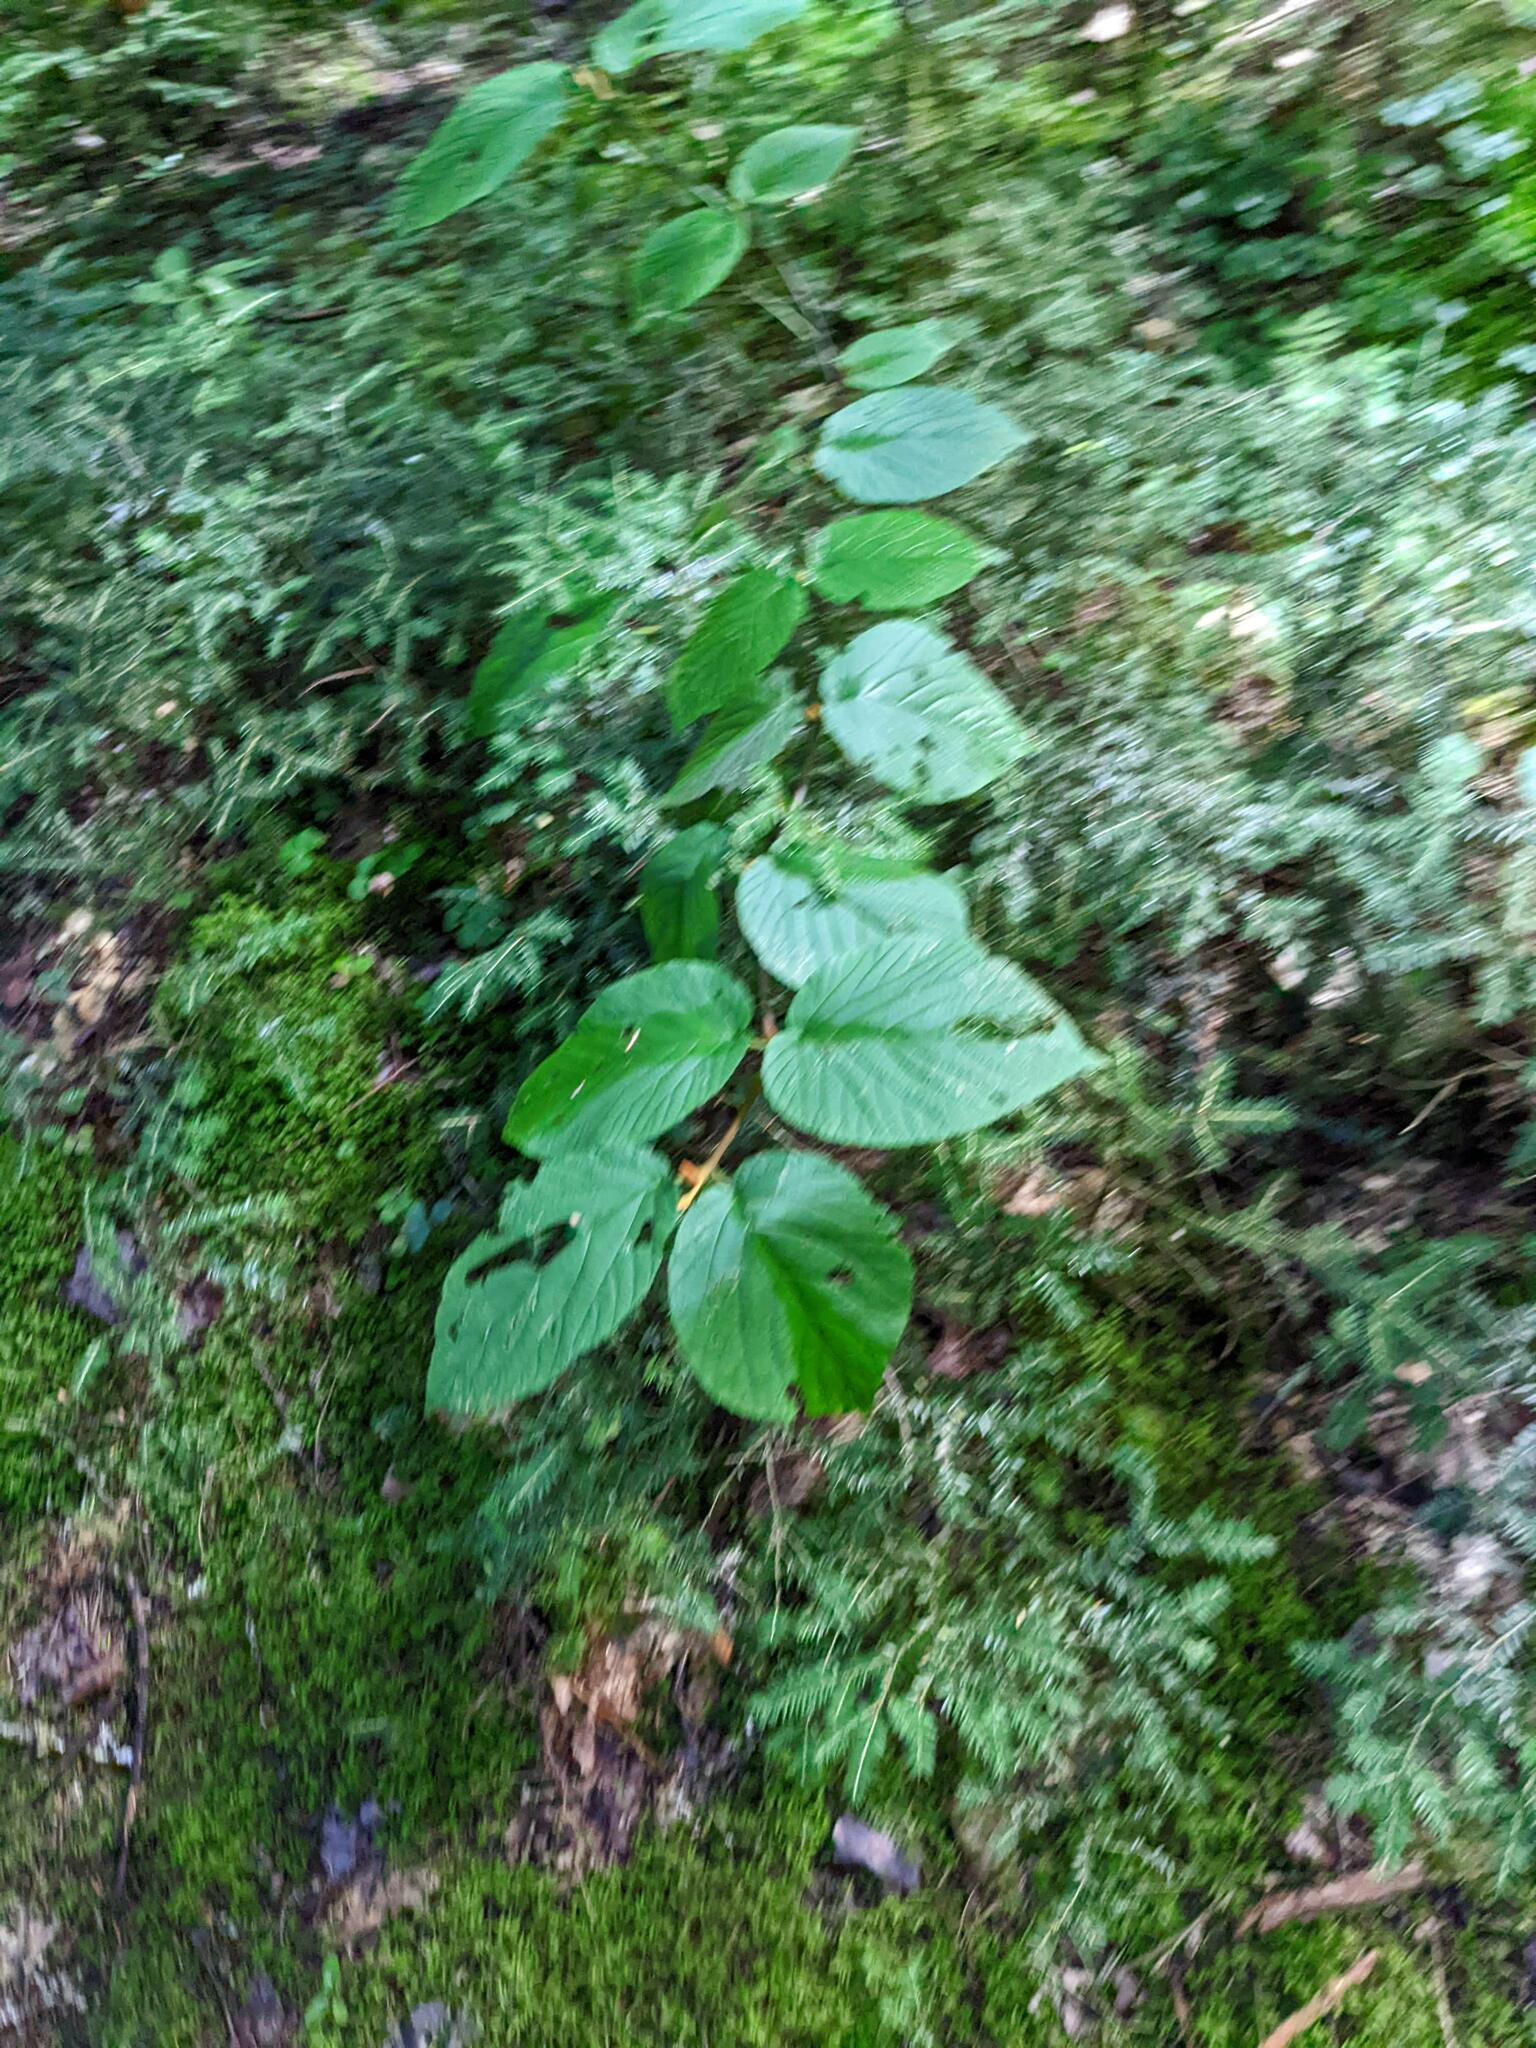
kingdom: Plantae
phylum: Tracheophyta
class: Magnoliopsida
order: Dipsacales
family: Viburnaceae
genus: Viburnum
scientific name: Viburnum lantanoides
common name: Hobblebush
